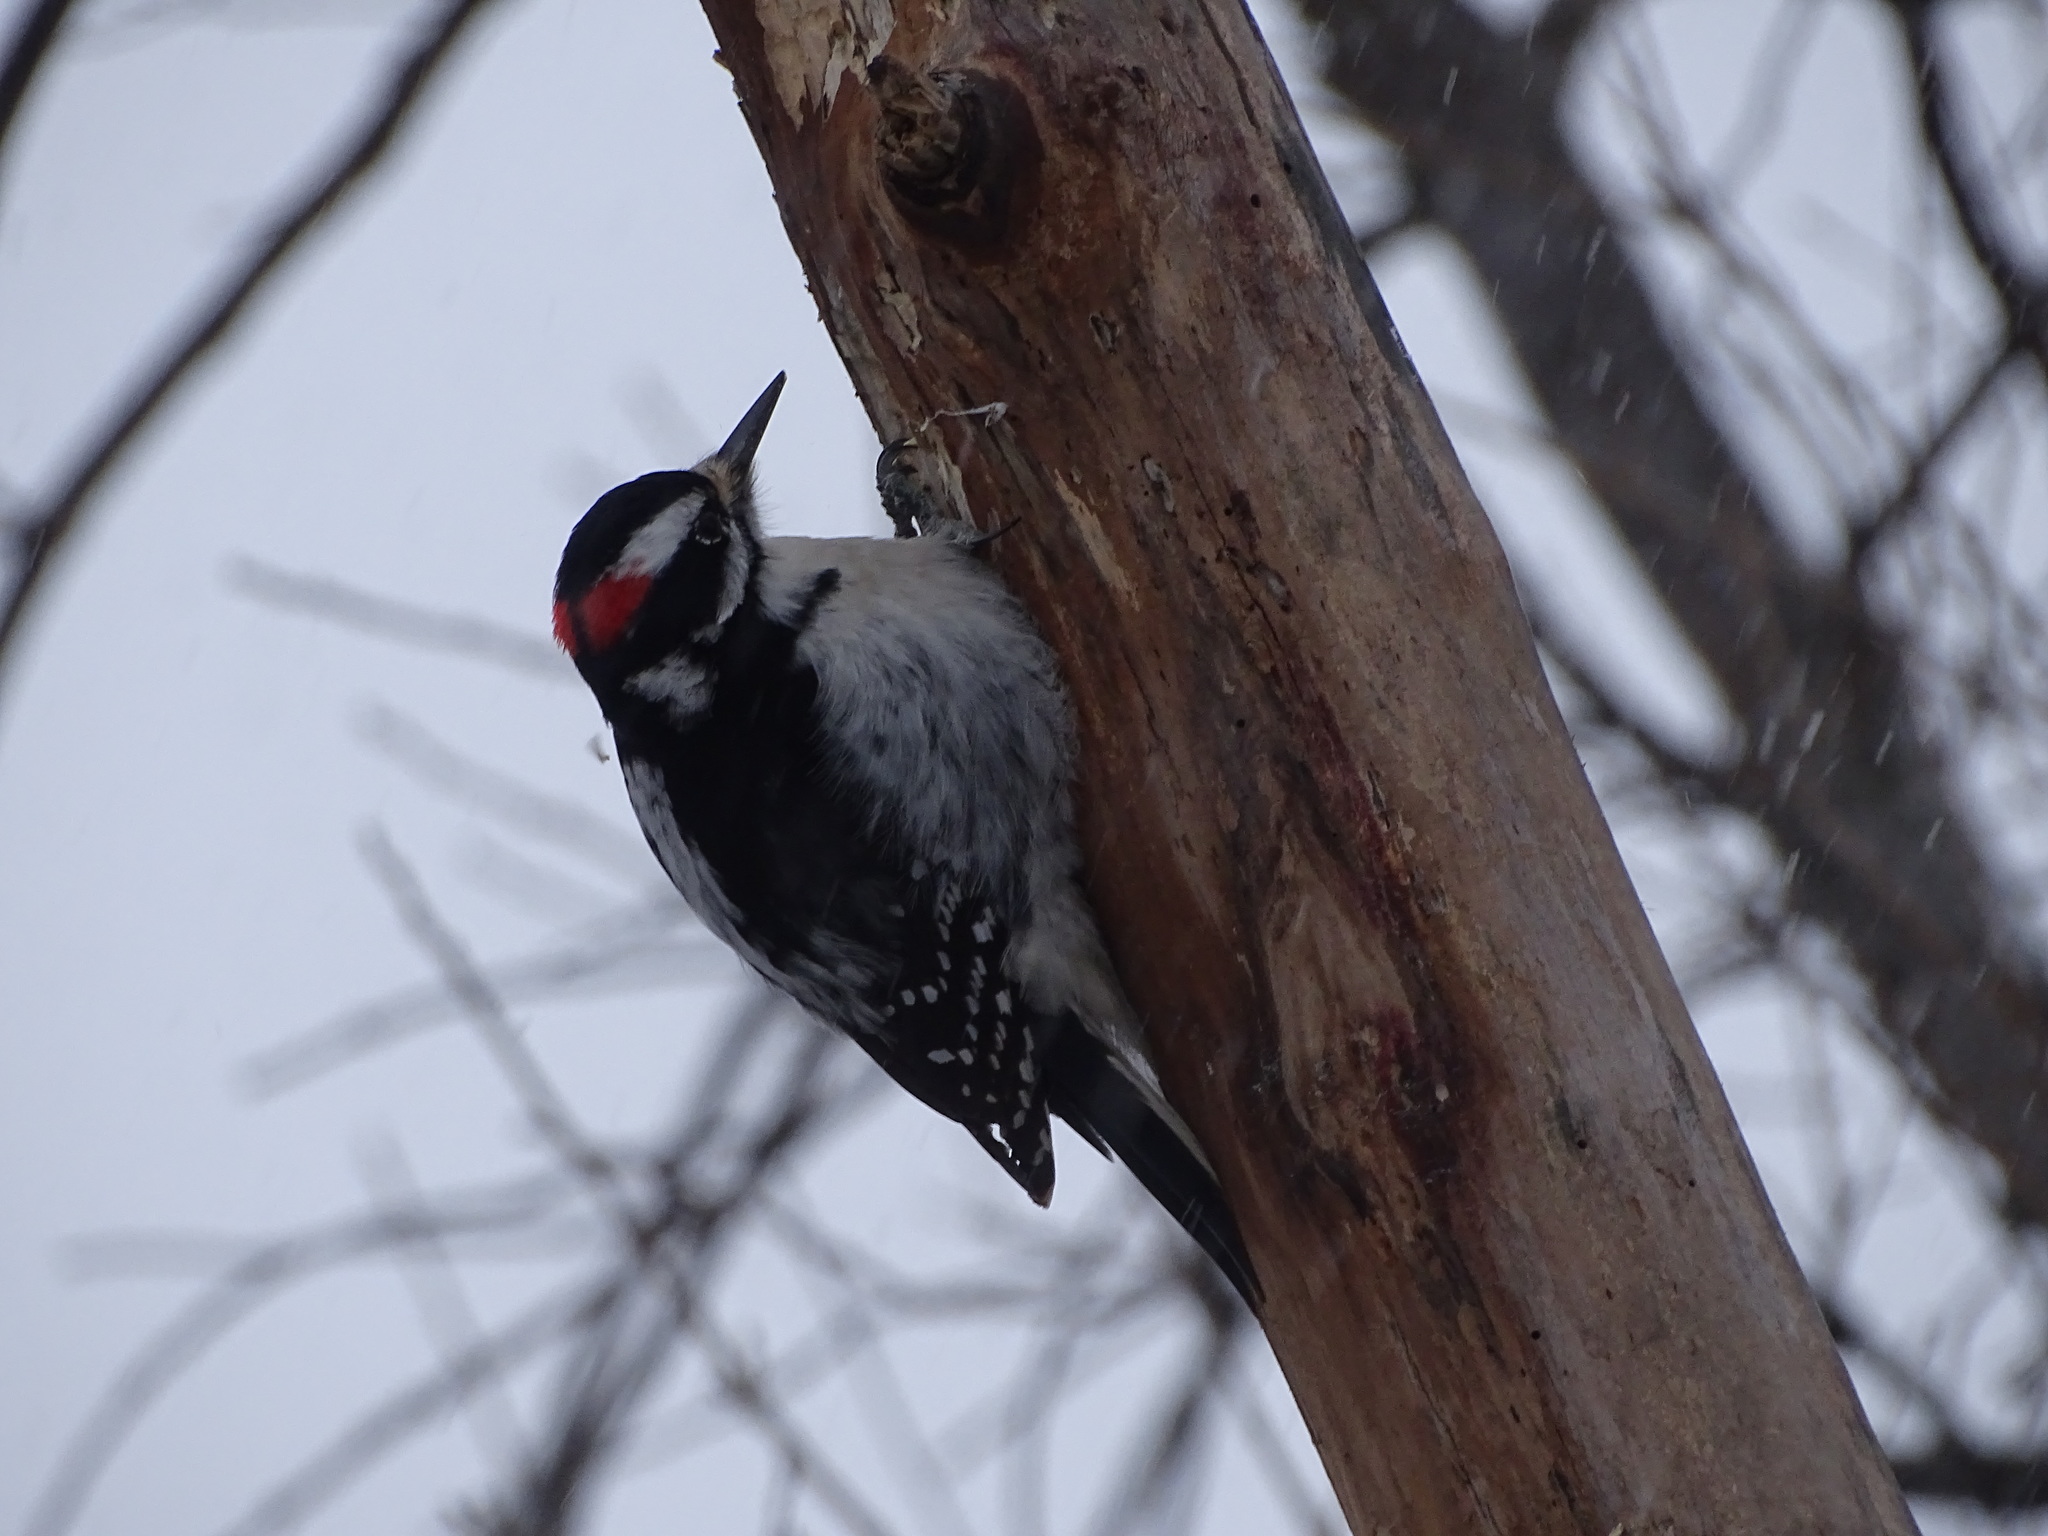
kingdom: Animalia
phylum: Chordata
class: Aves
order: Piciformes
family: Picidae
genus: Leuconotopicus
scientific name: Leuconotopicus villosus
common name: Hairy woodpecker
